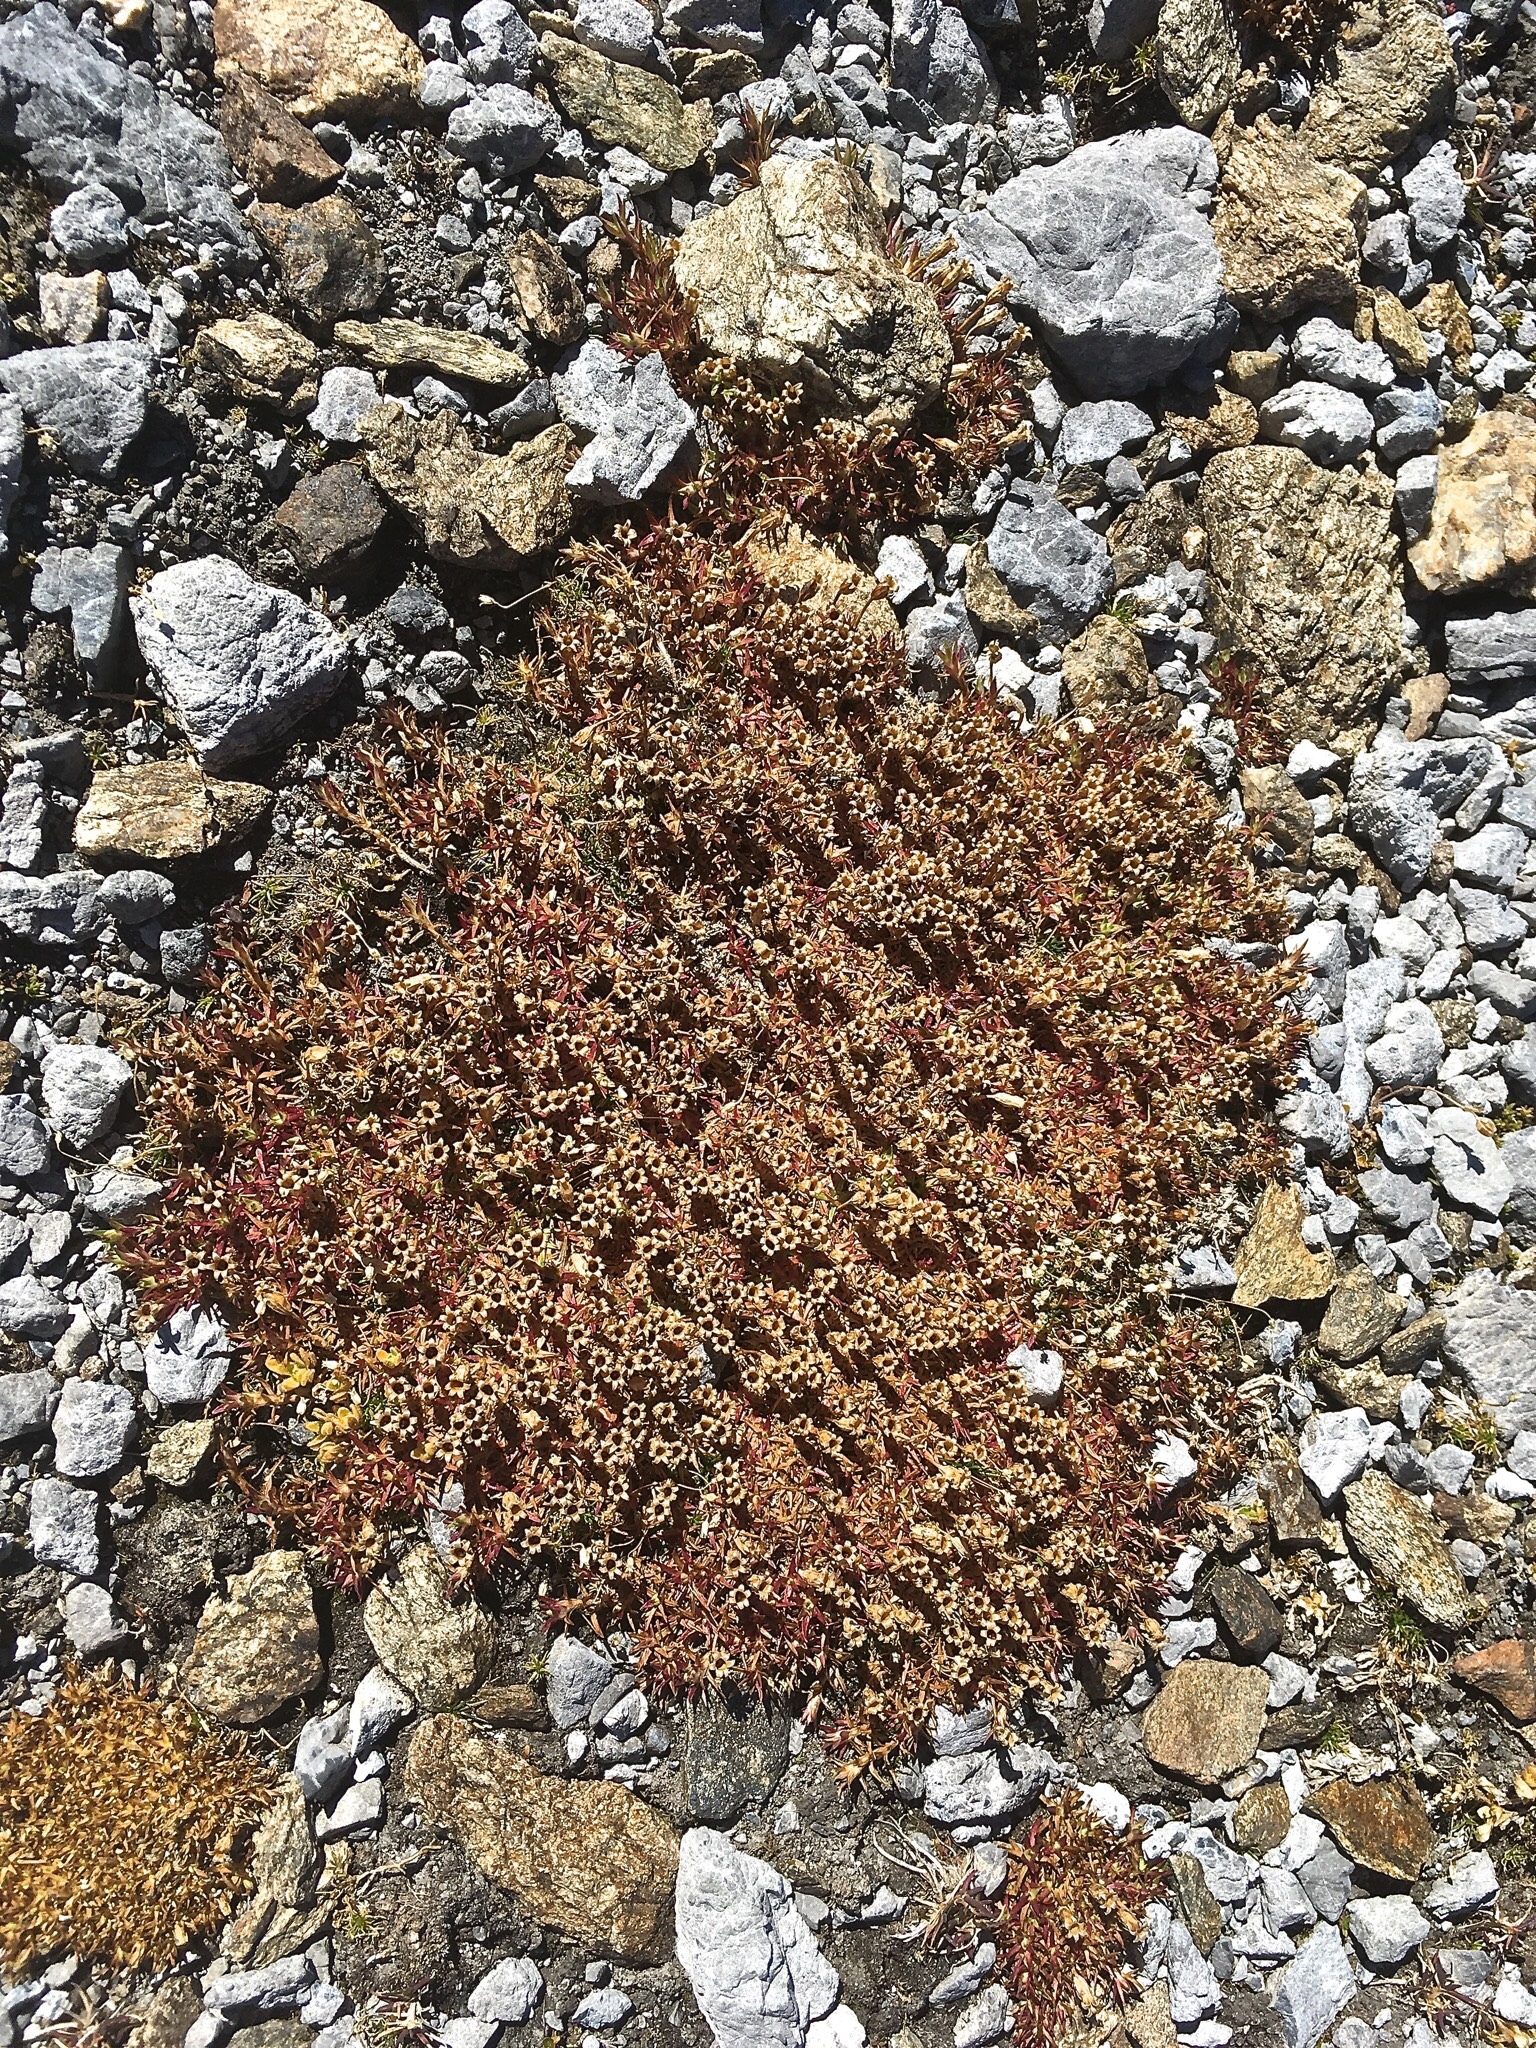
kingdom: Plantae
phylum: Tracheophyta
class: Magnoliopsida
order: Caryophyllales
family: Caryophyllaceae
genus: Silene
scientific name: Silene acaulis
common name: Moss campion
